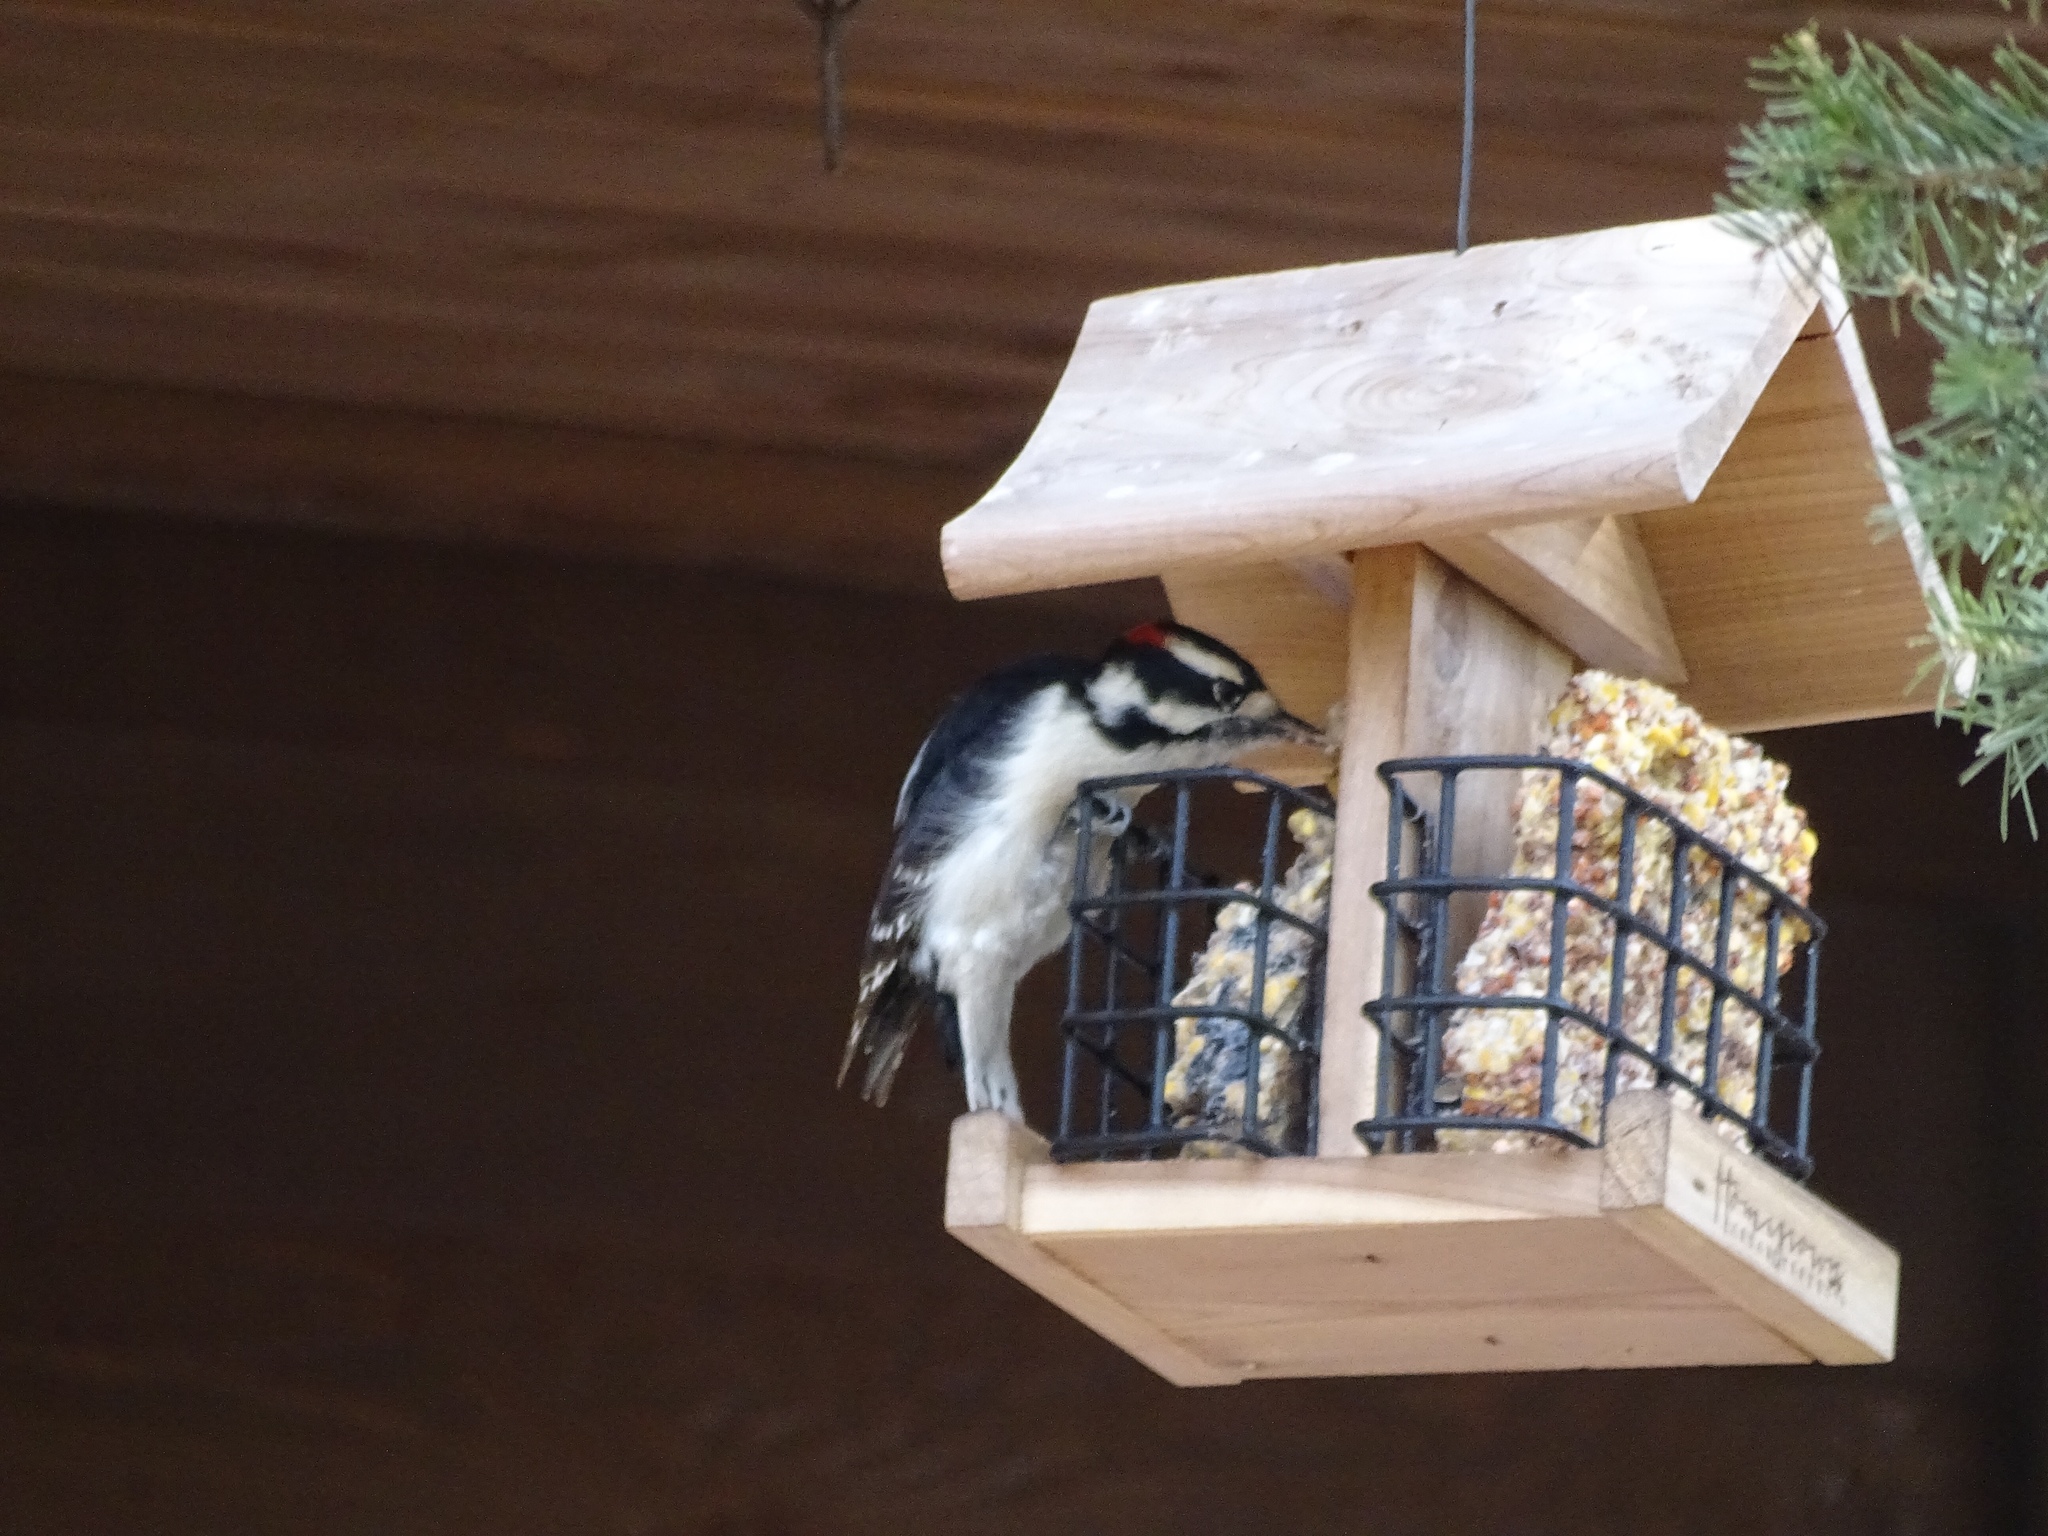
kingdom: Animalia
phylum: Chordata
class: Aves
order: Piciformes
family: Picidae
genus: Dryobates
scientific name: Dryobates pubescens
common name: Downy woodpecker
